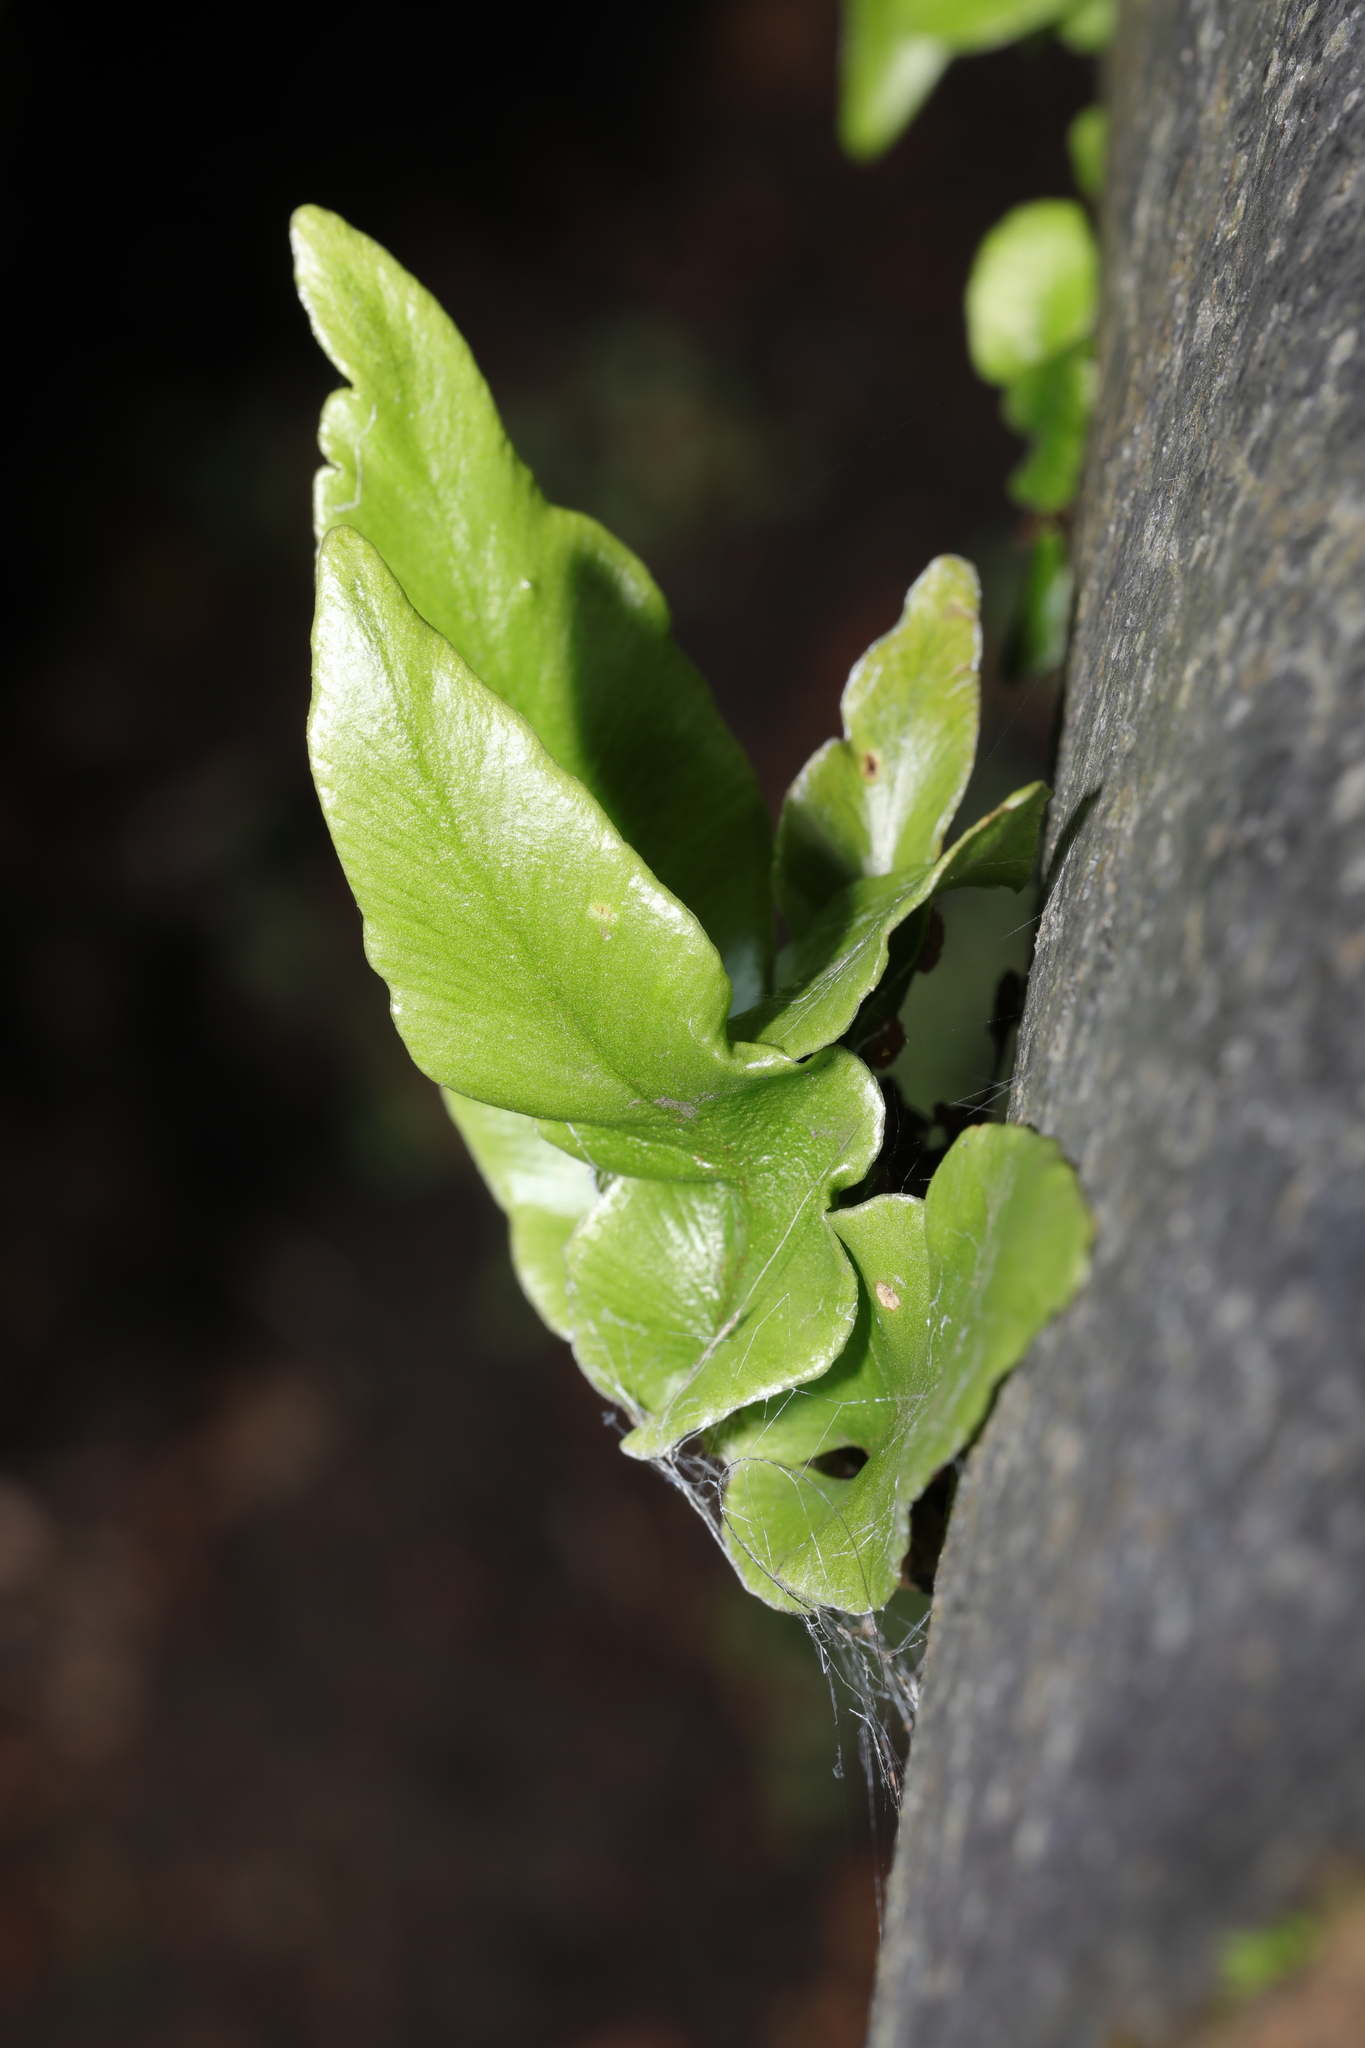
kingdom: Plantae
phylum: Tracheophyta
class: Polypodiopsida
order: Polypodiales
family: Aspleniaceae
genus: Asplenium
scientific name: Asplenium scolopendrium
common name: Hart's-tongue fern
